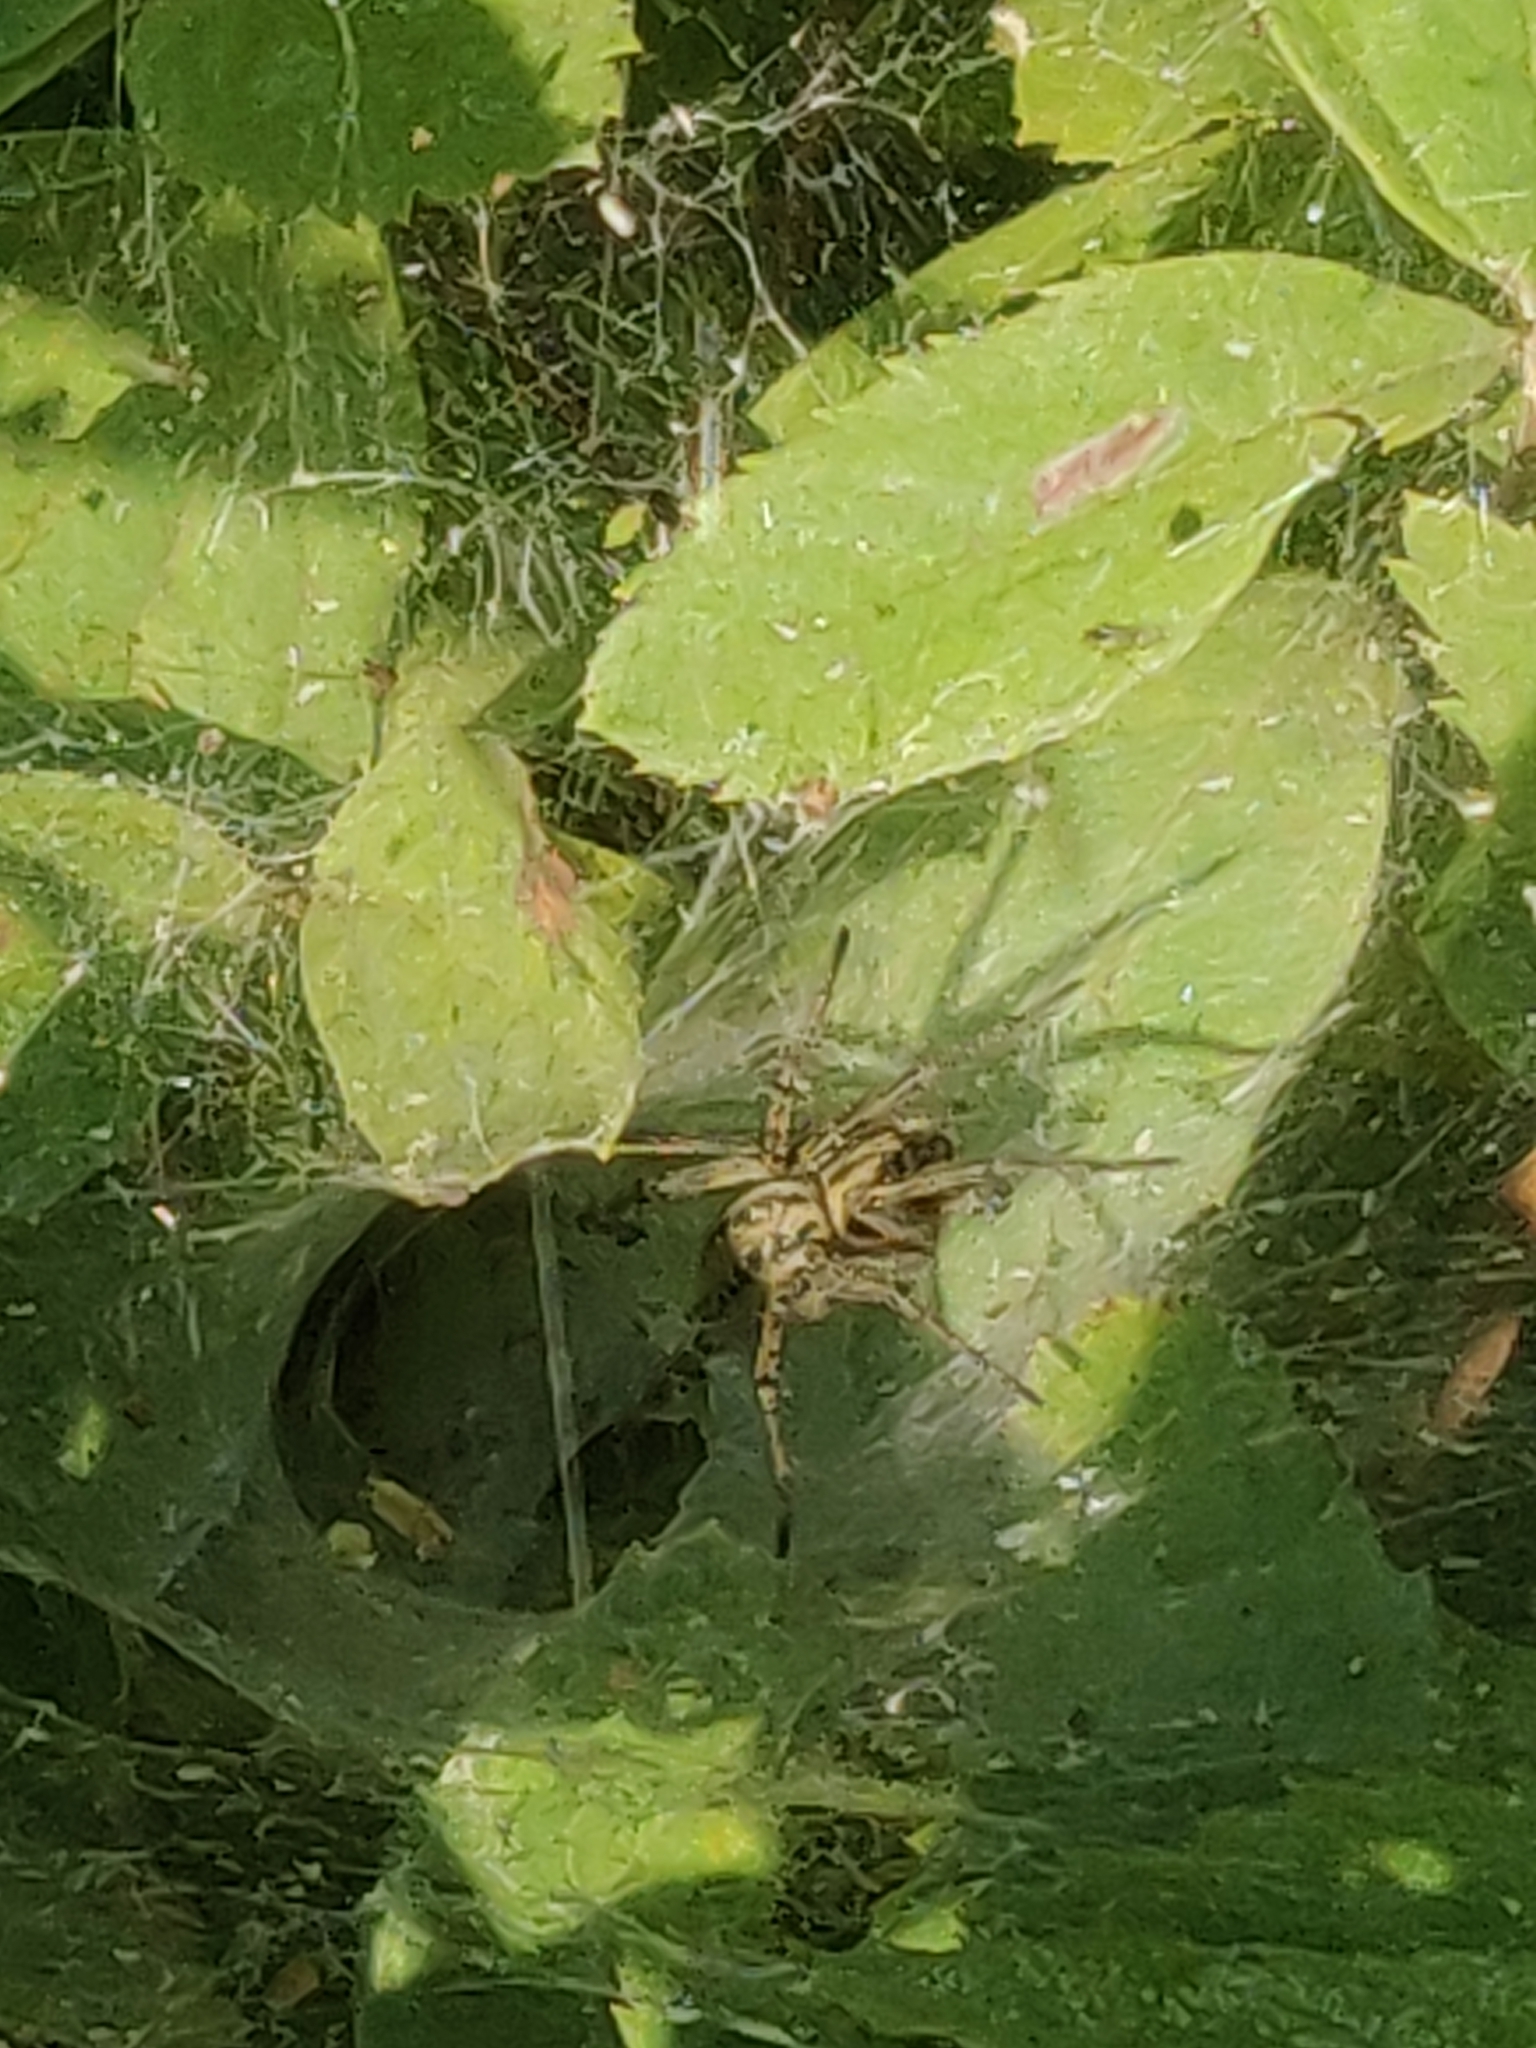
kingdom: Animalia
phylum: Arthropoda
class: Arachnida
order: Araneae
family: Agelenidae
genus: Agelena
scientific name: Agelena labyrinthica
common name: Labyrinth spider
